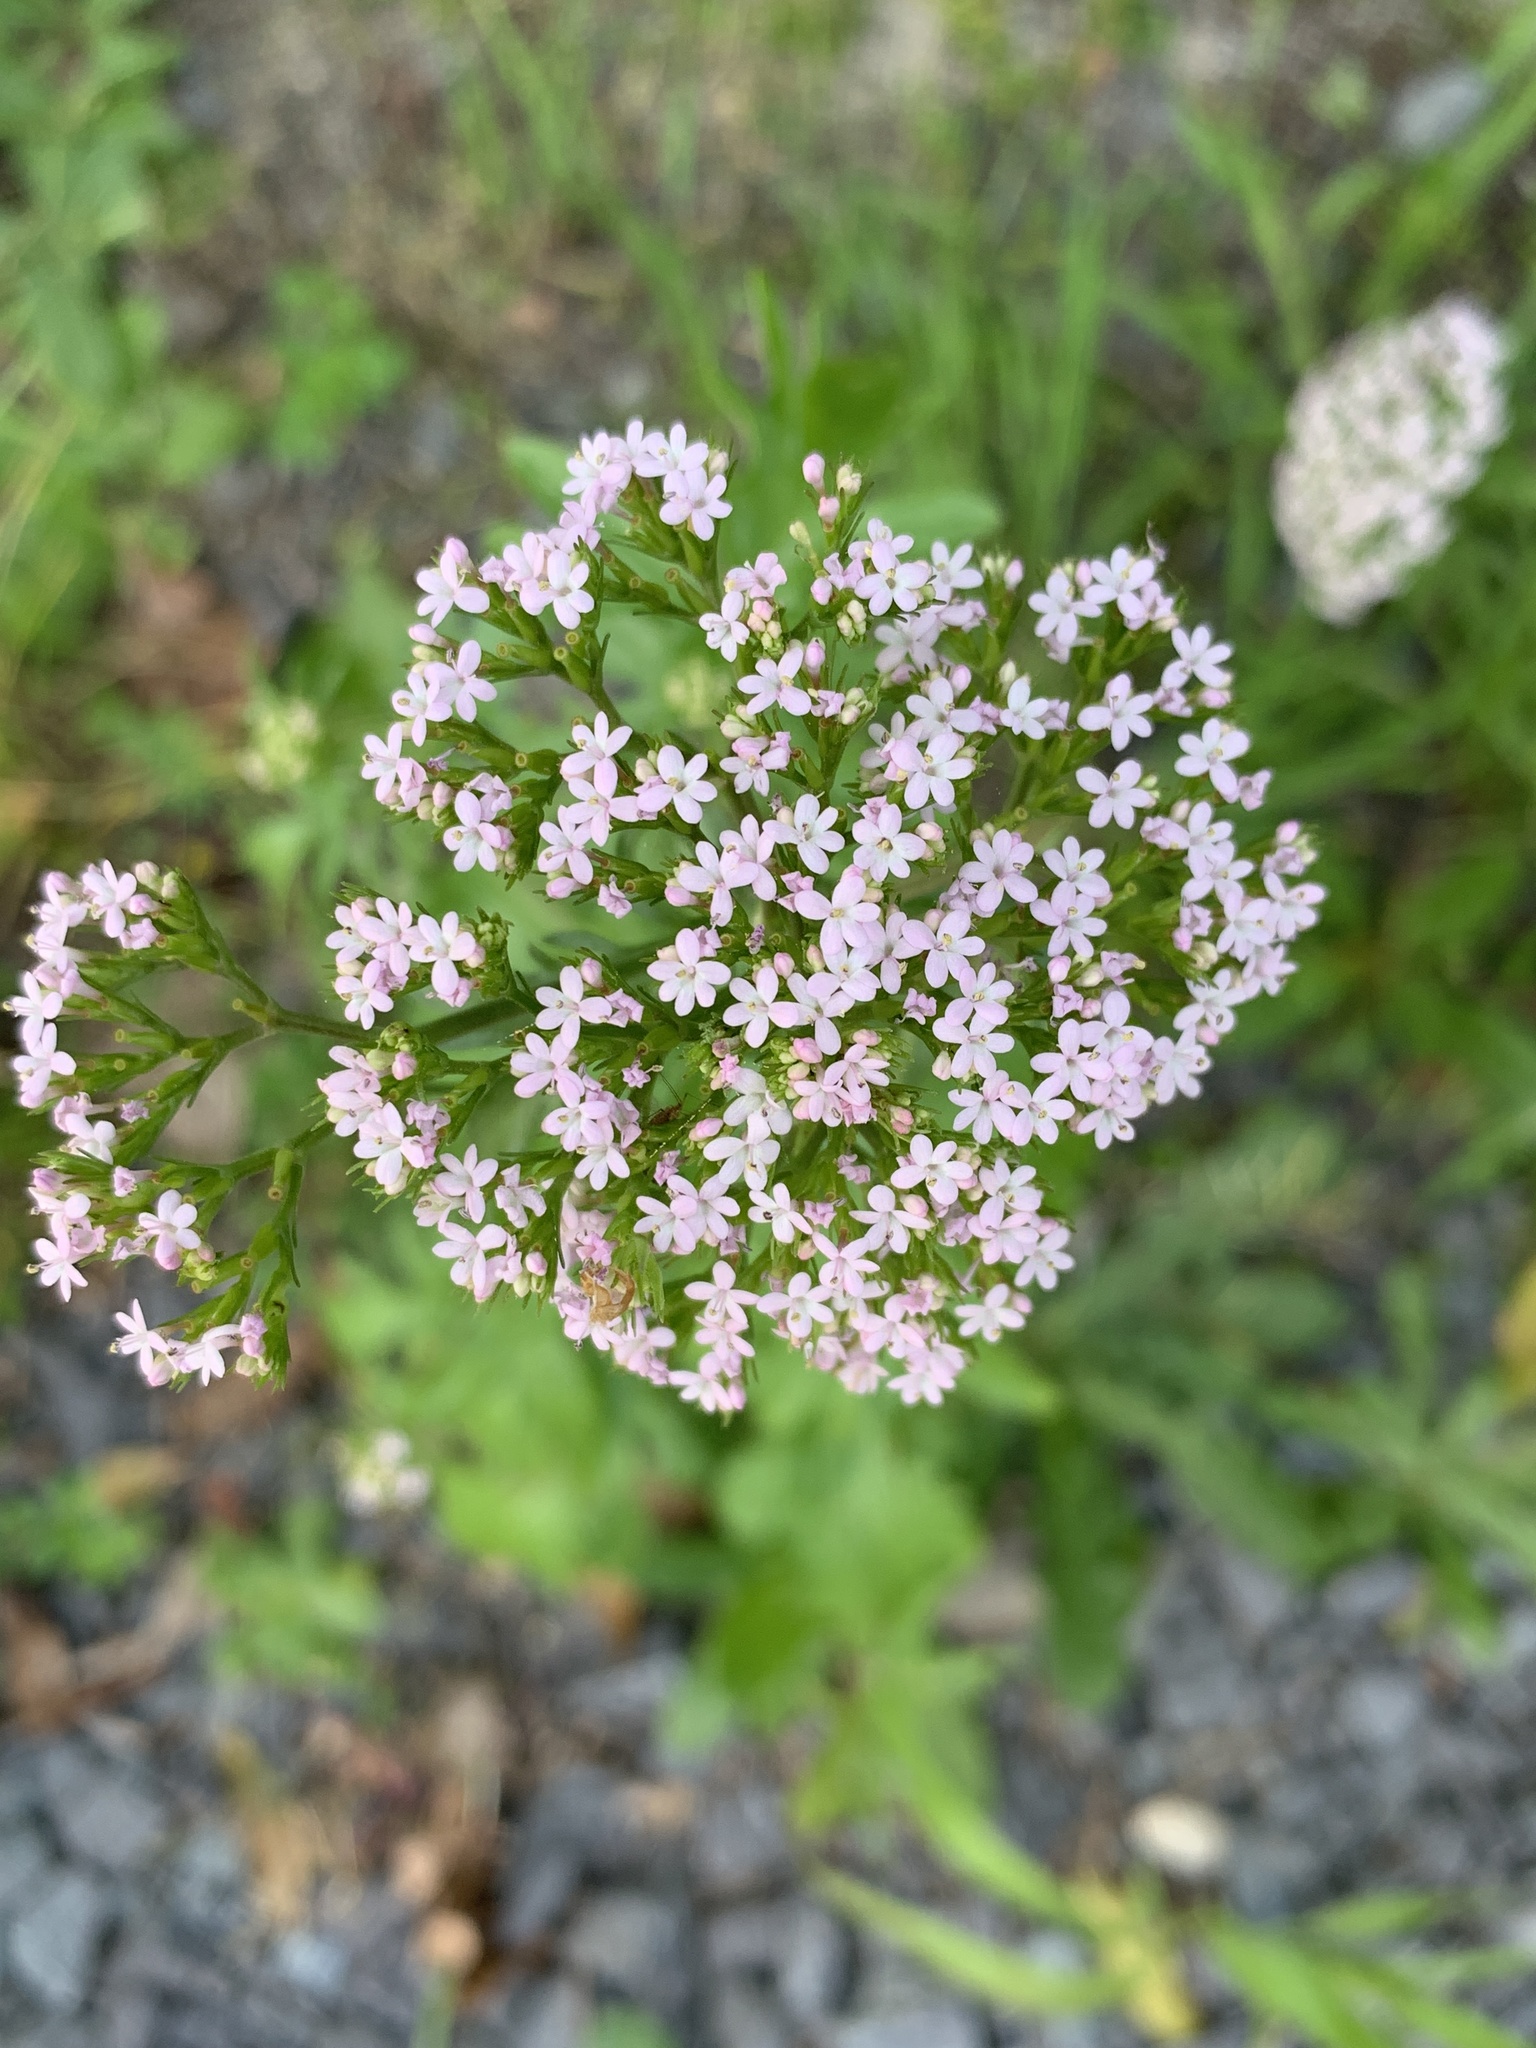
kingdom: Plantae
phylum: Tracheophyta
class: Magnoliopsida
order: Dipsacales
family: Caprifoliaceae
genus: Centranthus
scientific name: Centranthus calcitrapae
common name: Annual valerian
